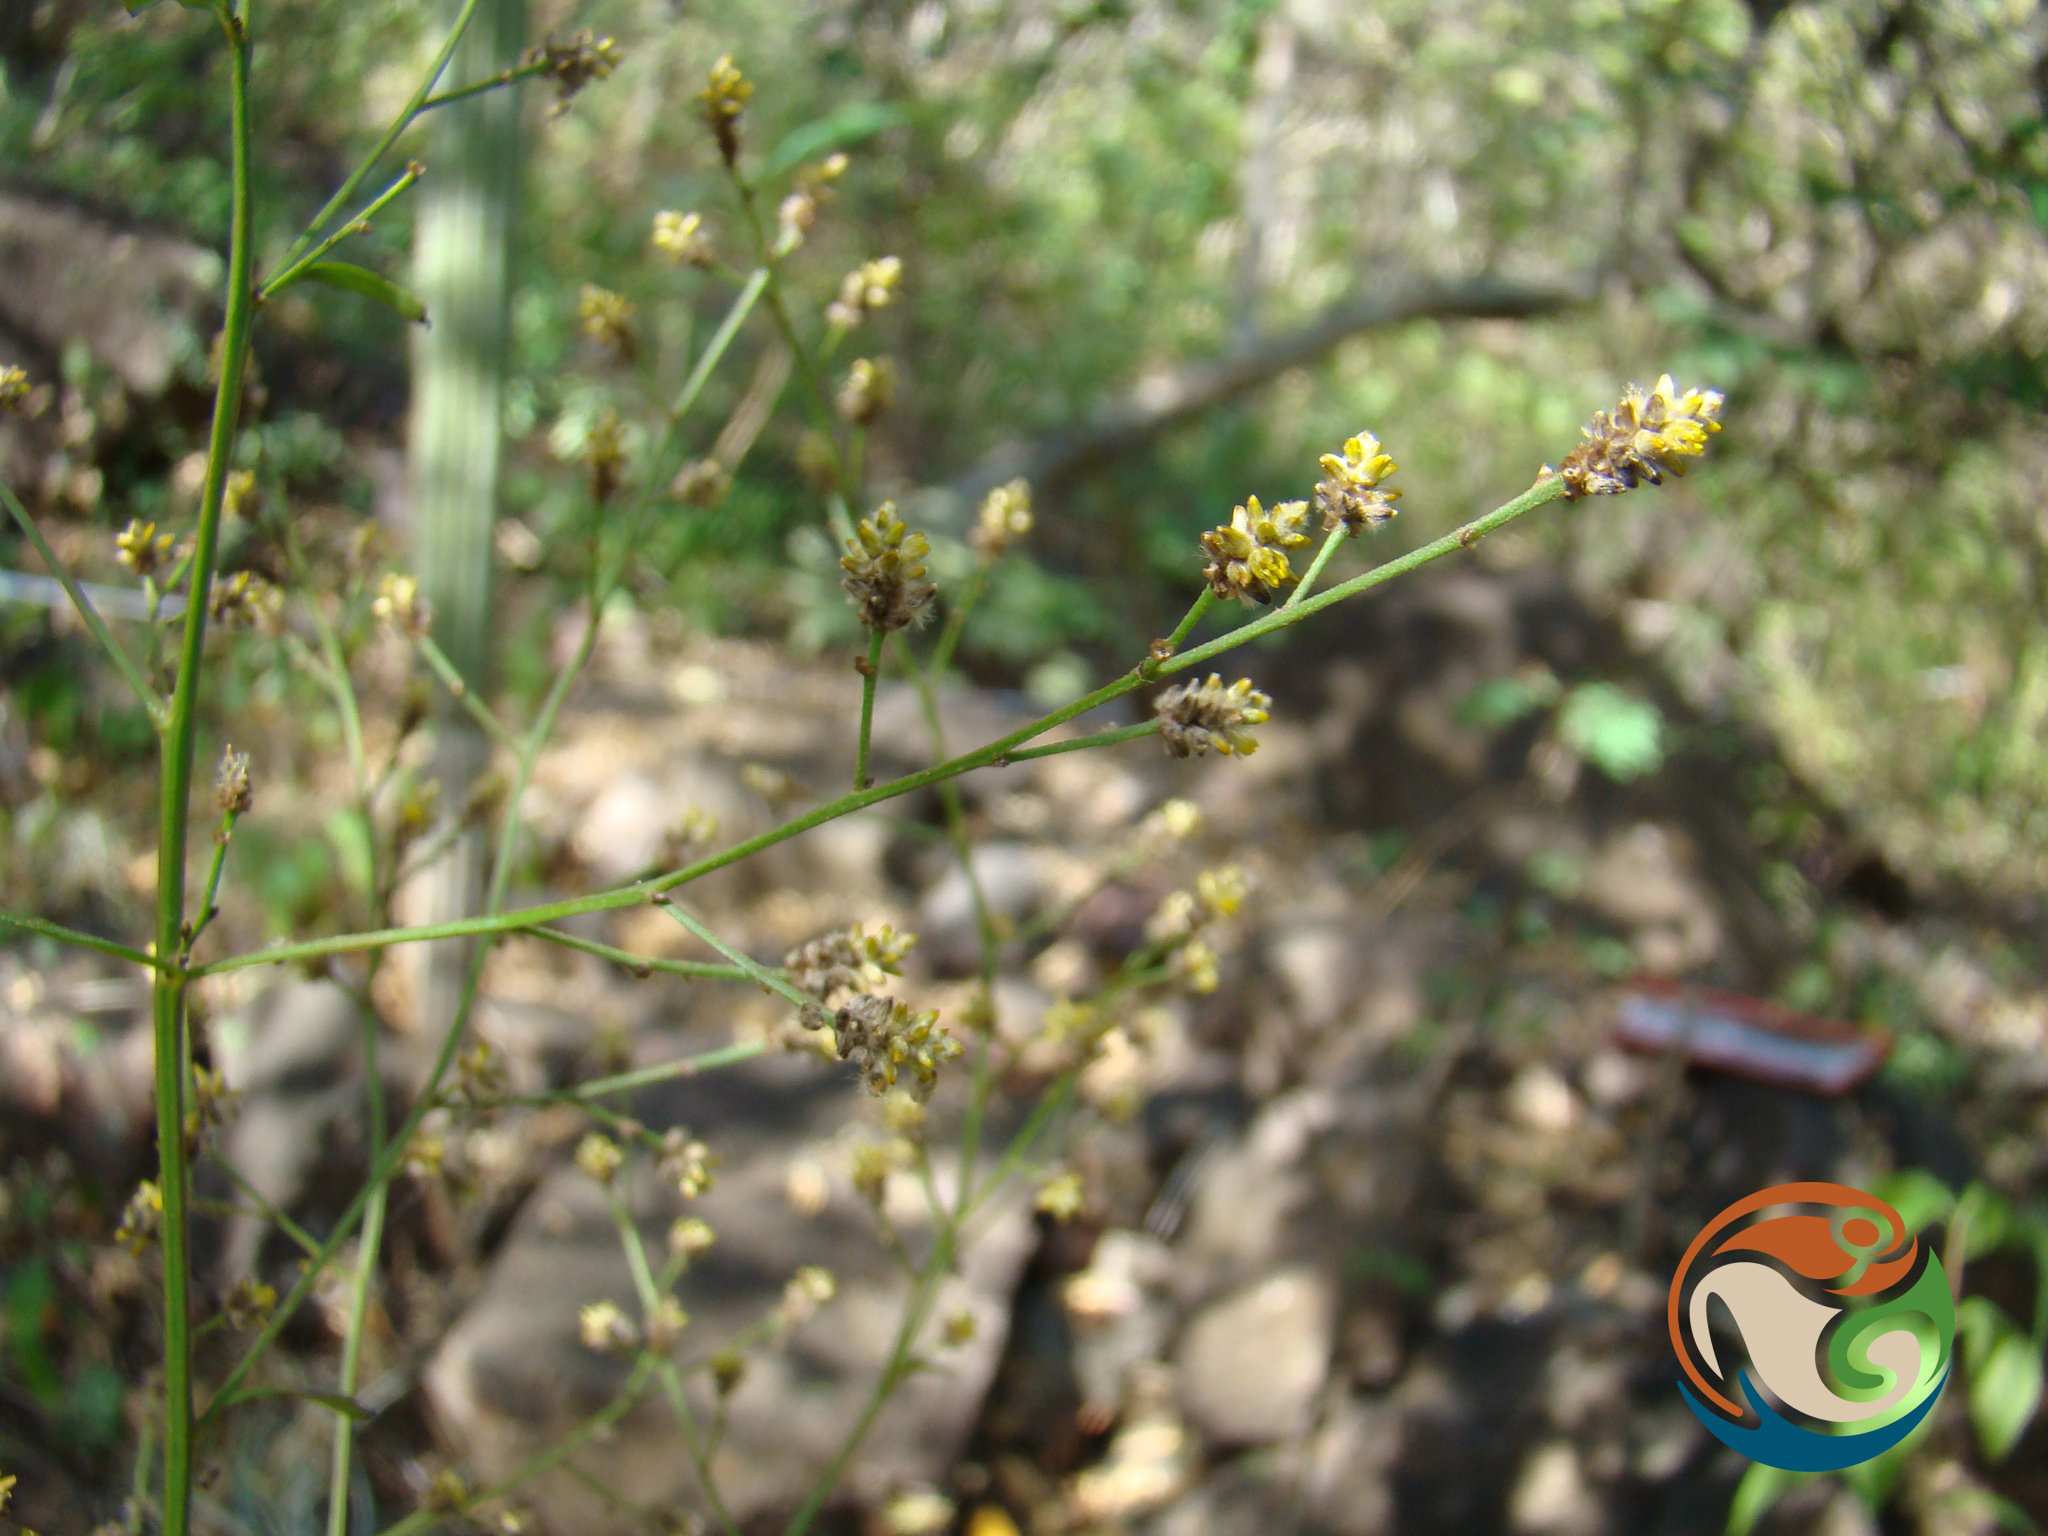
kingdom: Plantae
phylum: Tracheophyta
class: Magnoliopsida
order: Caryophyllales
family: Amaranthaceae
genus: Iresine
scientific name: Iresine nigra
